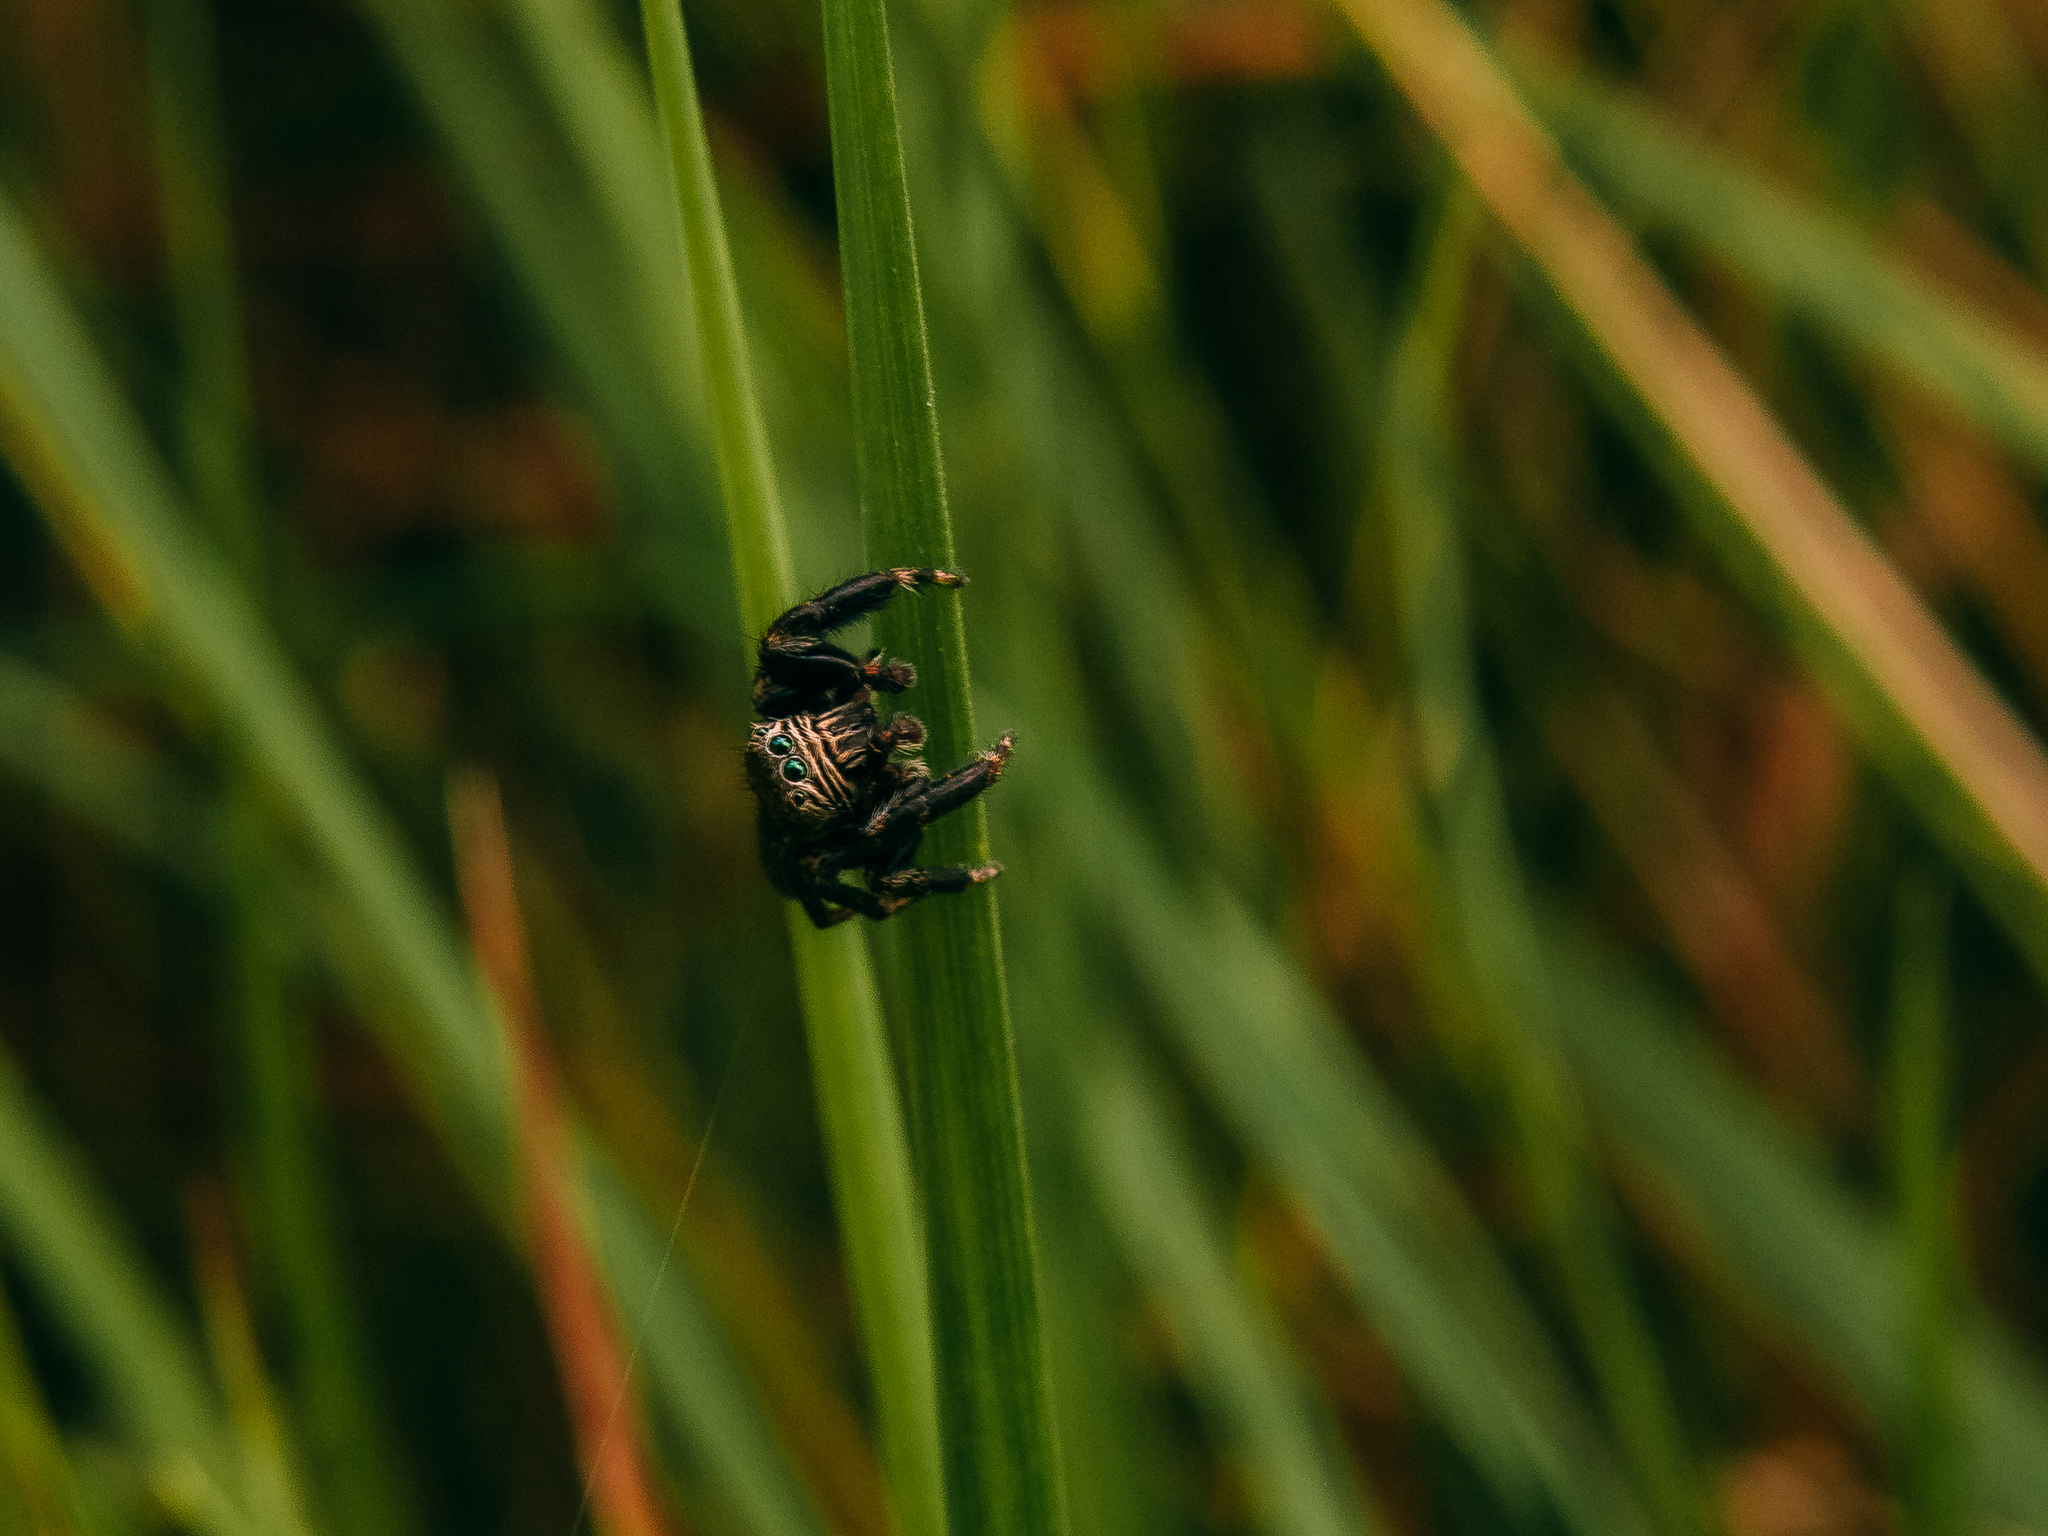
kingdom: Animalia
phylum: Arthropoda
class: Arachnida
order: Araneae
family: Salticidae
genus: Evarcha
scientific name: Evarcha arcuata
